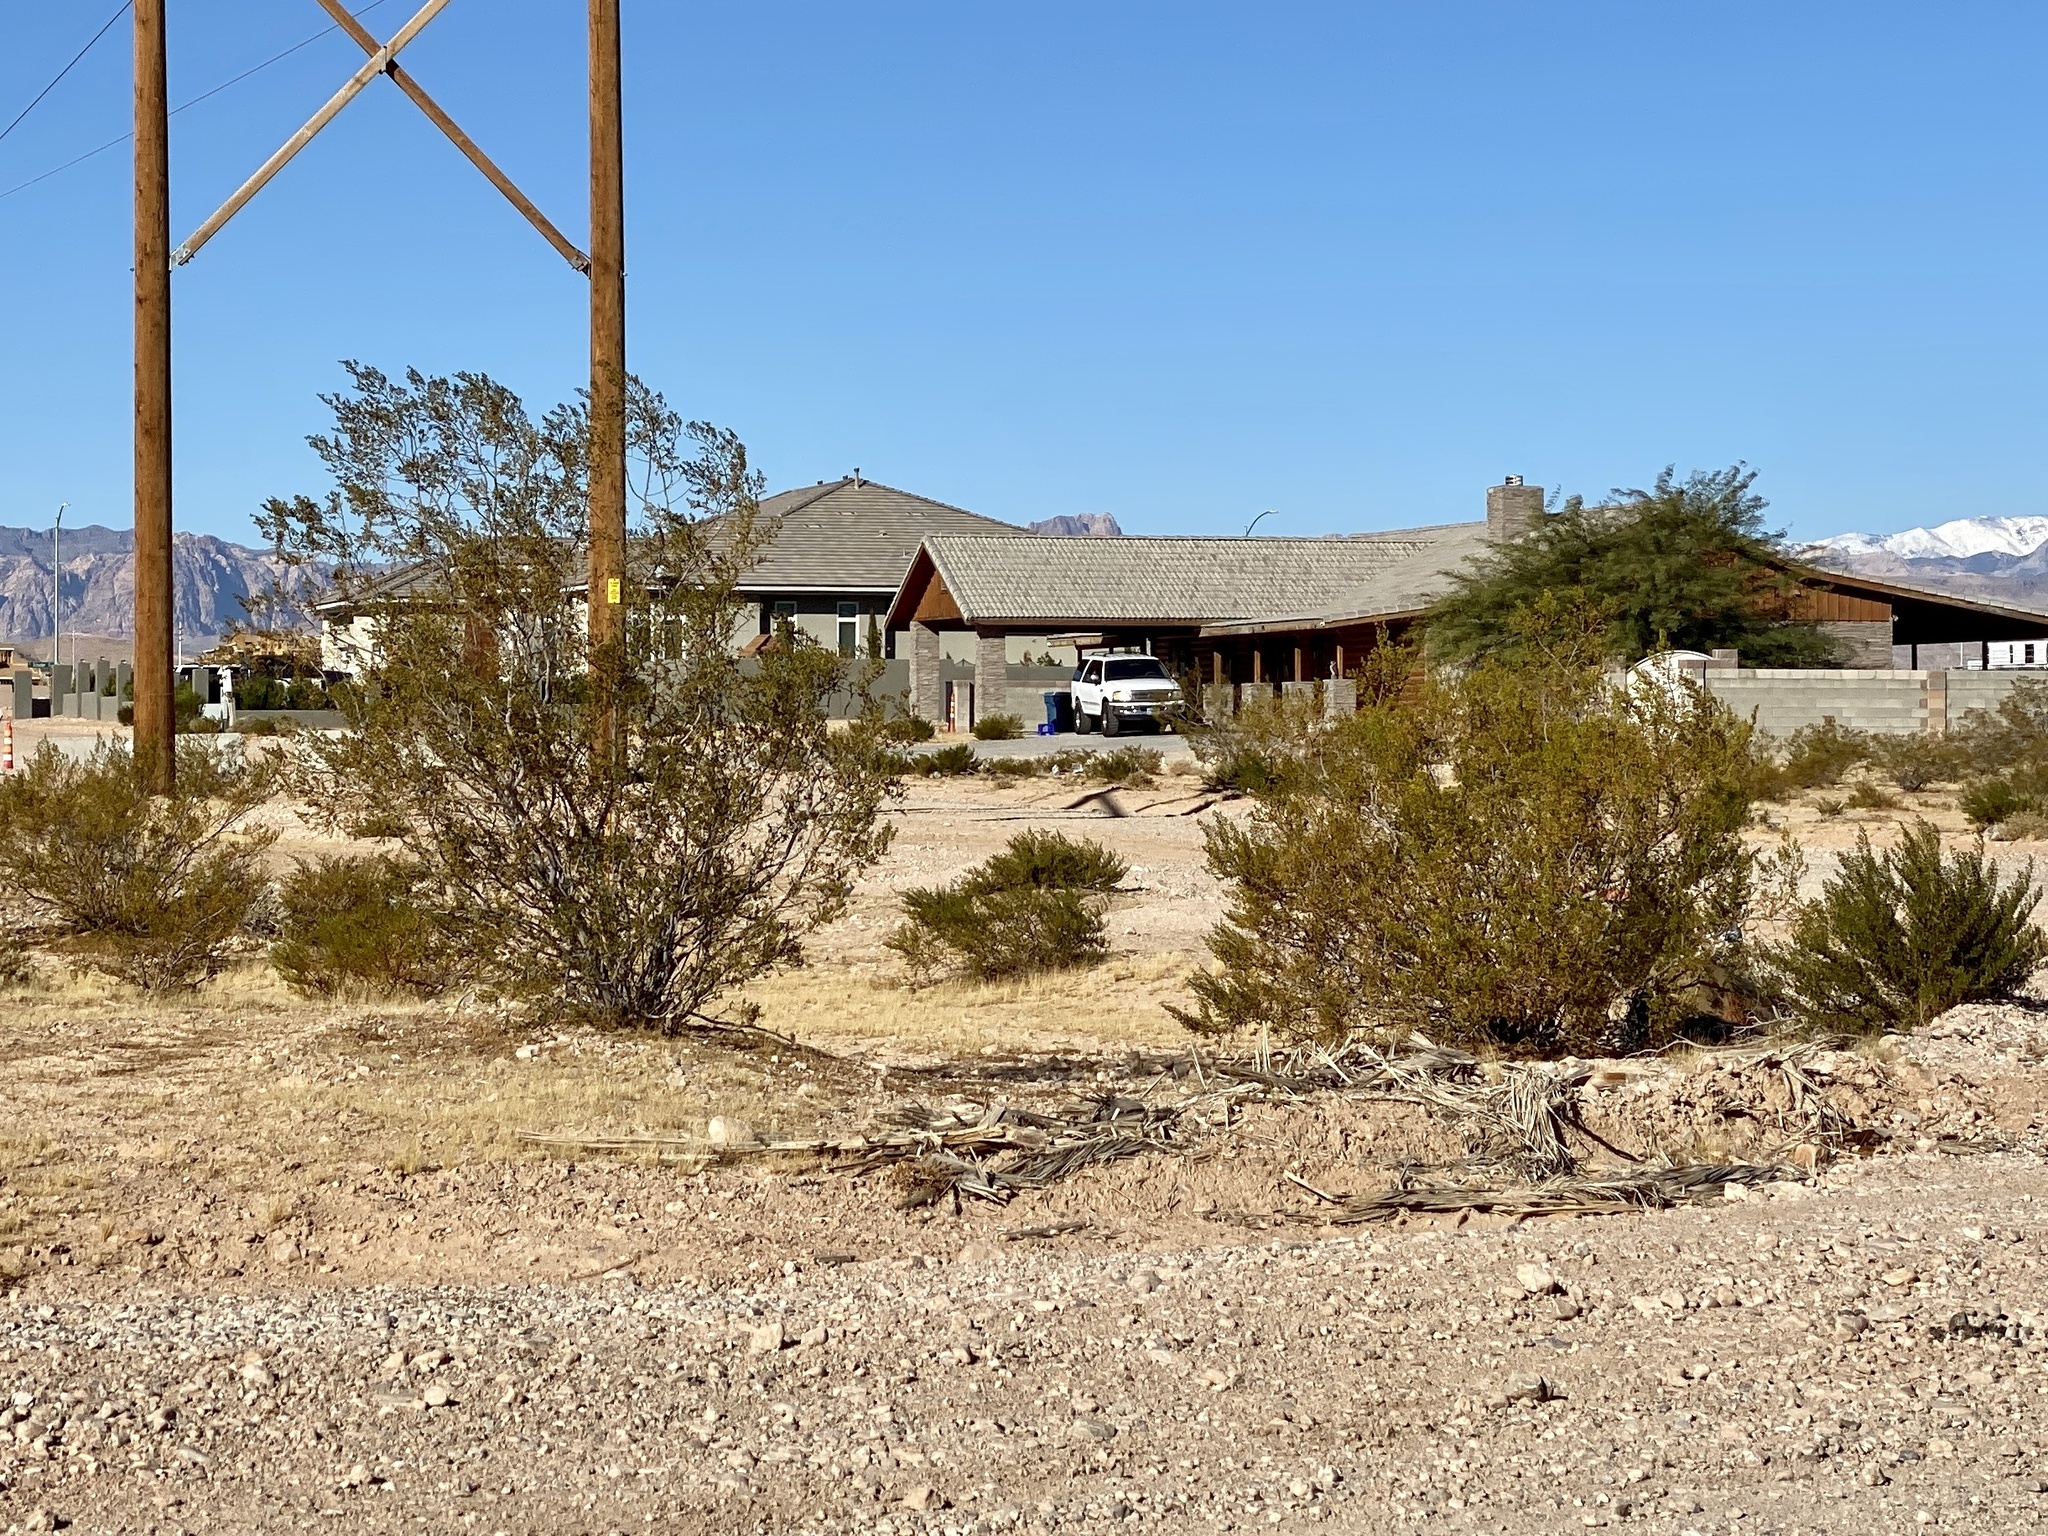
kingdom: Plantae
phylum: Tracheophyta
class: Magnoliopsida
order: Zygophyllales
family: Zygophyllaceae
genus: Larrea
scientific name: Larrea tridentata
